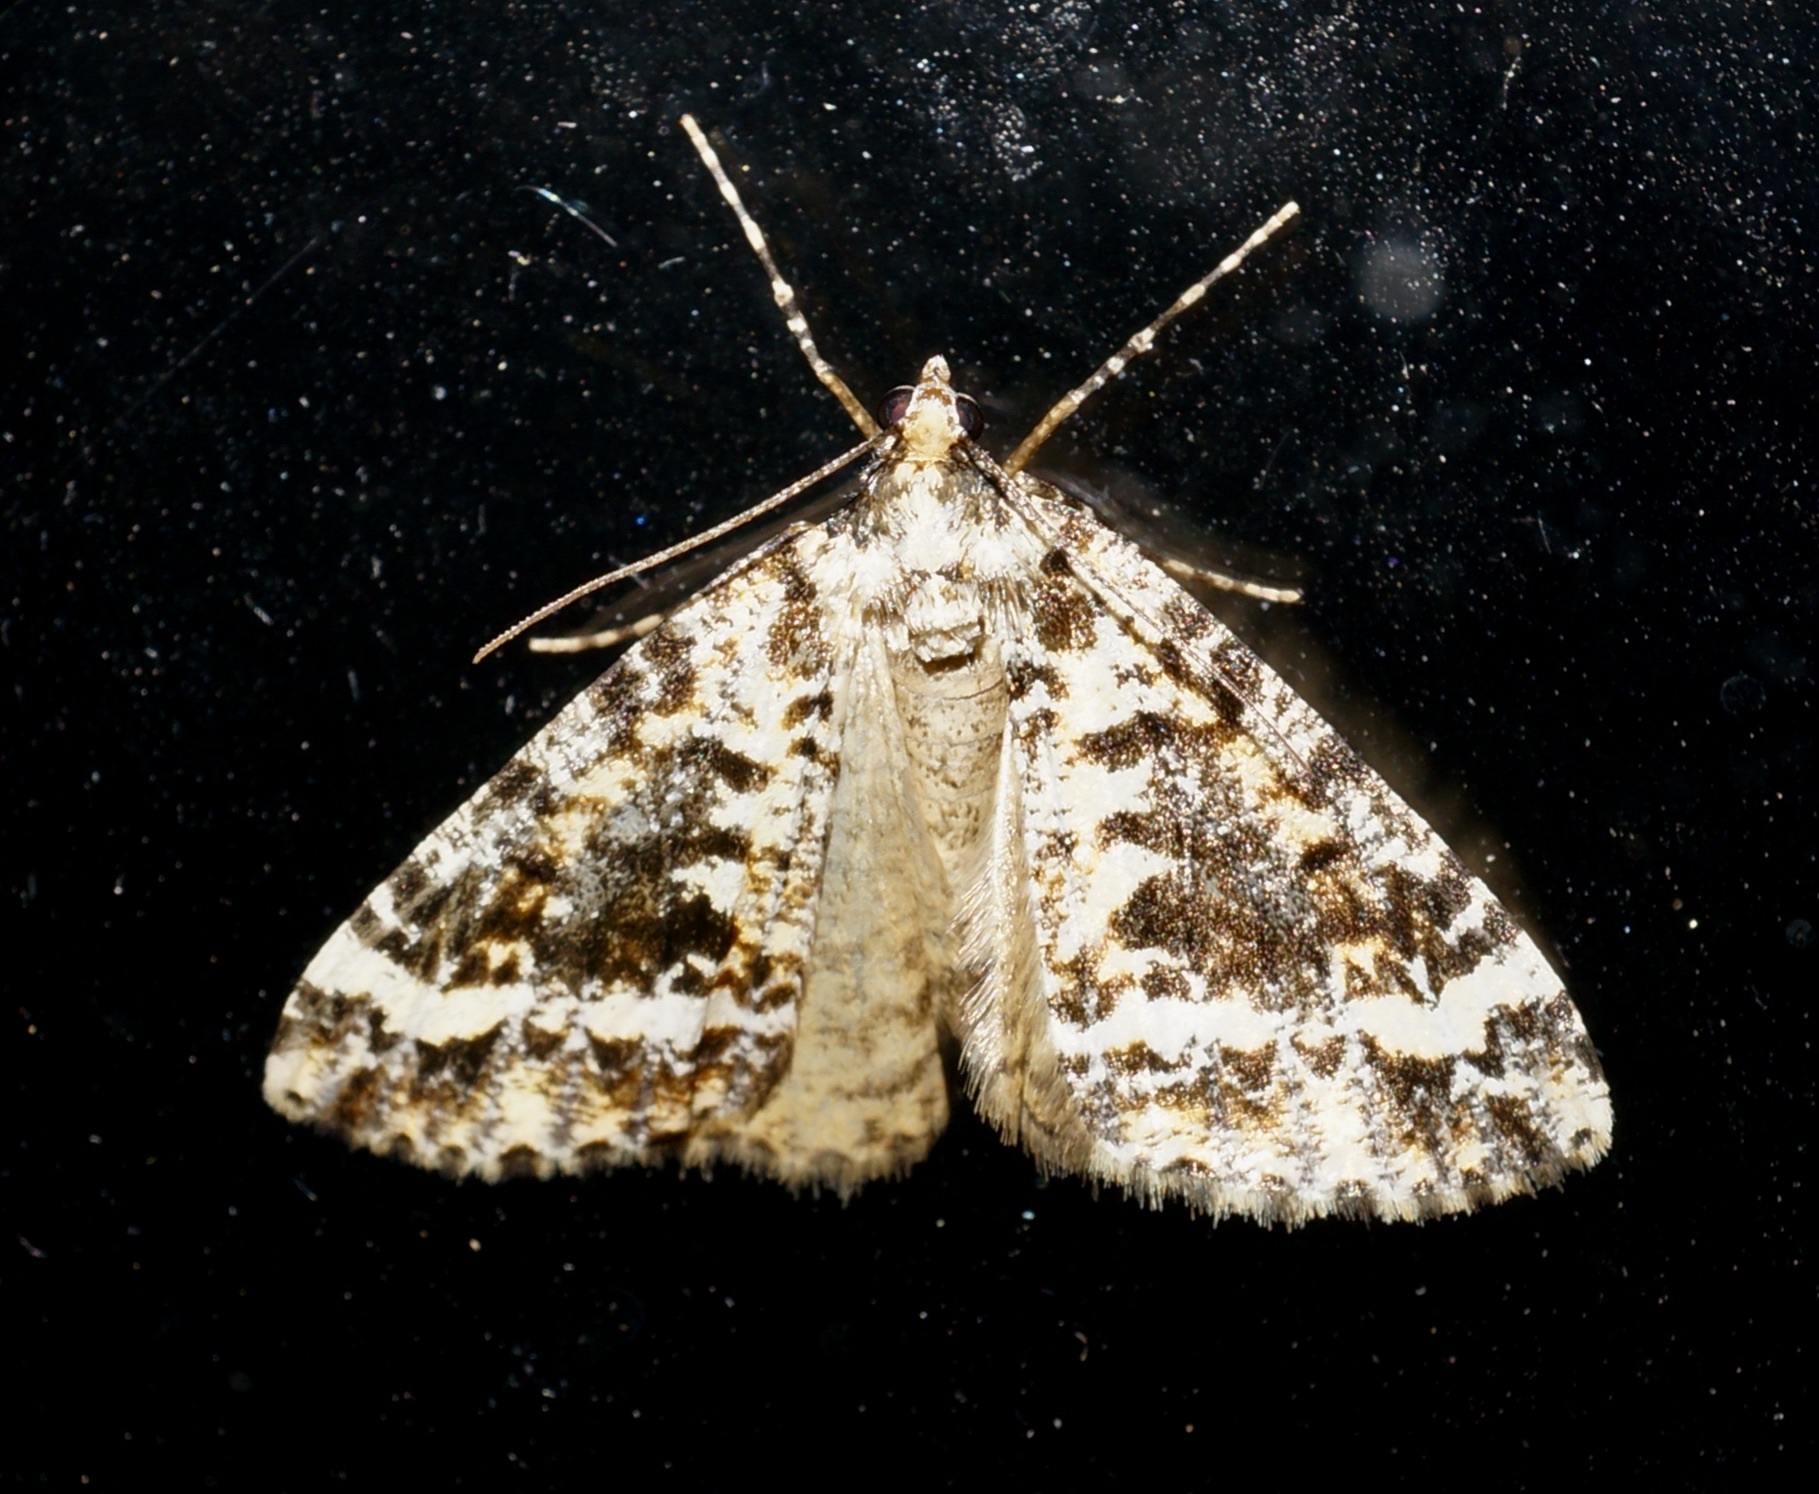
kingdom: Animalia
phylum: Arthropoda
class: Insecta
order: Lepidoptera
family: Geometridae
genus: Pseudocoremia
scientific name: Pseudocoremia leucelaea
